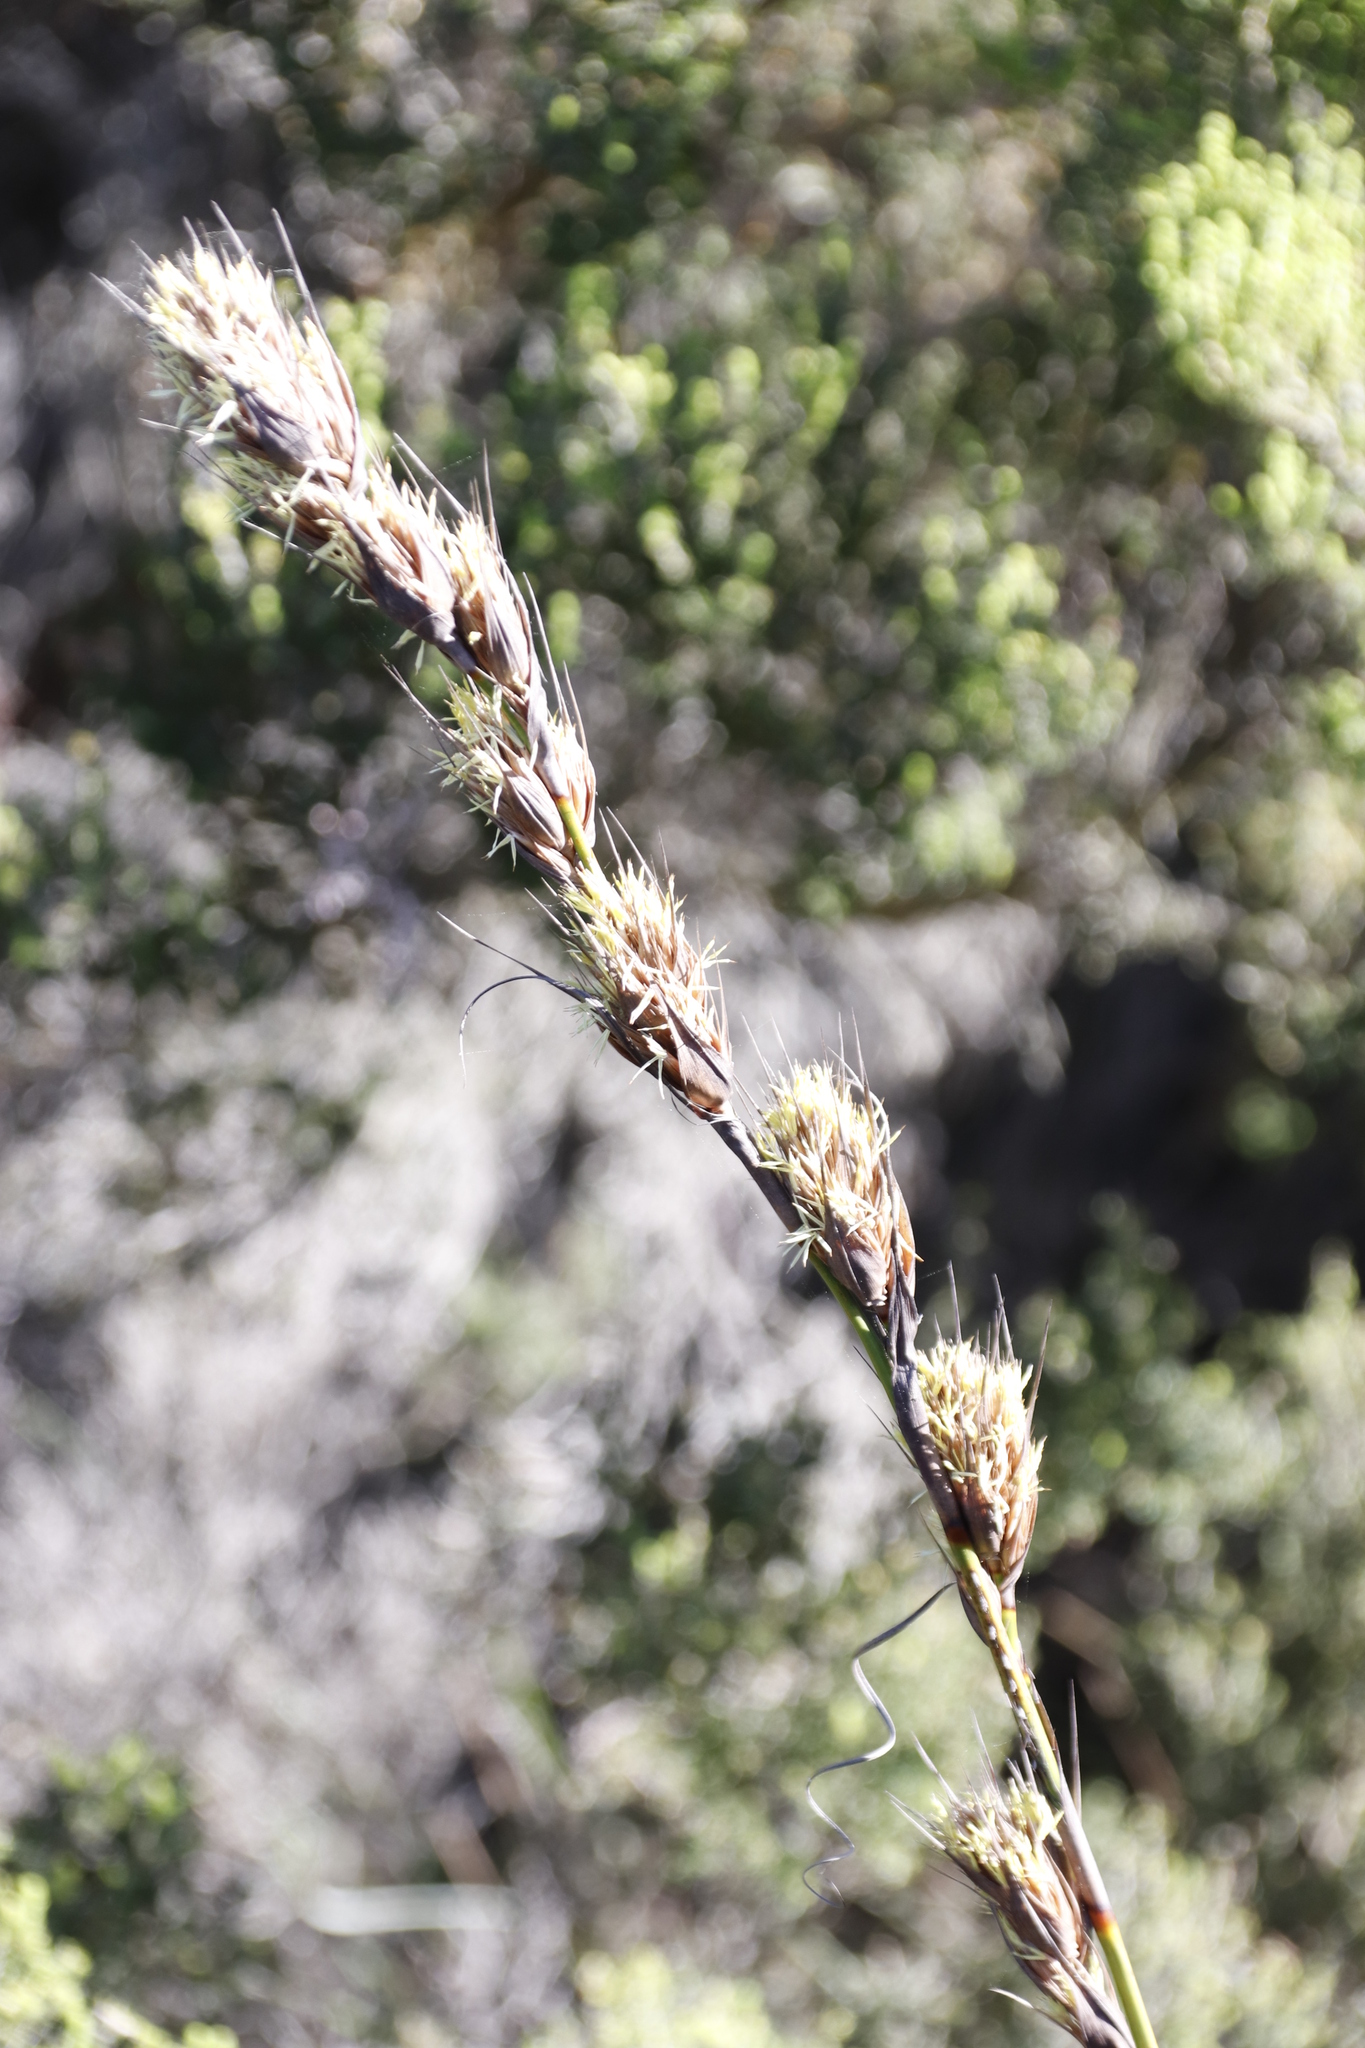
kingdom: Plantae
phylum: Tracheophyta
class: Liliopsida
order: Poales
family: Cyperaceae
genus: Tetraria
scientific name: Tetraria bromoides
